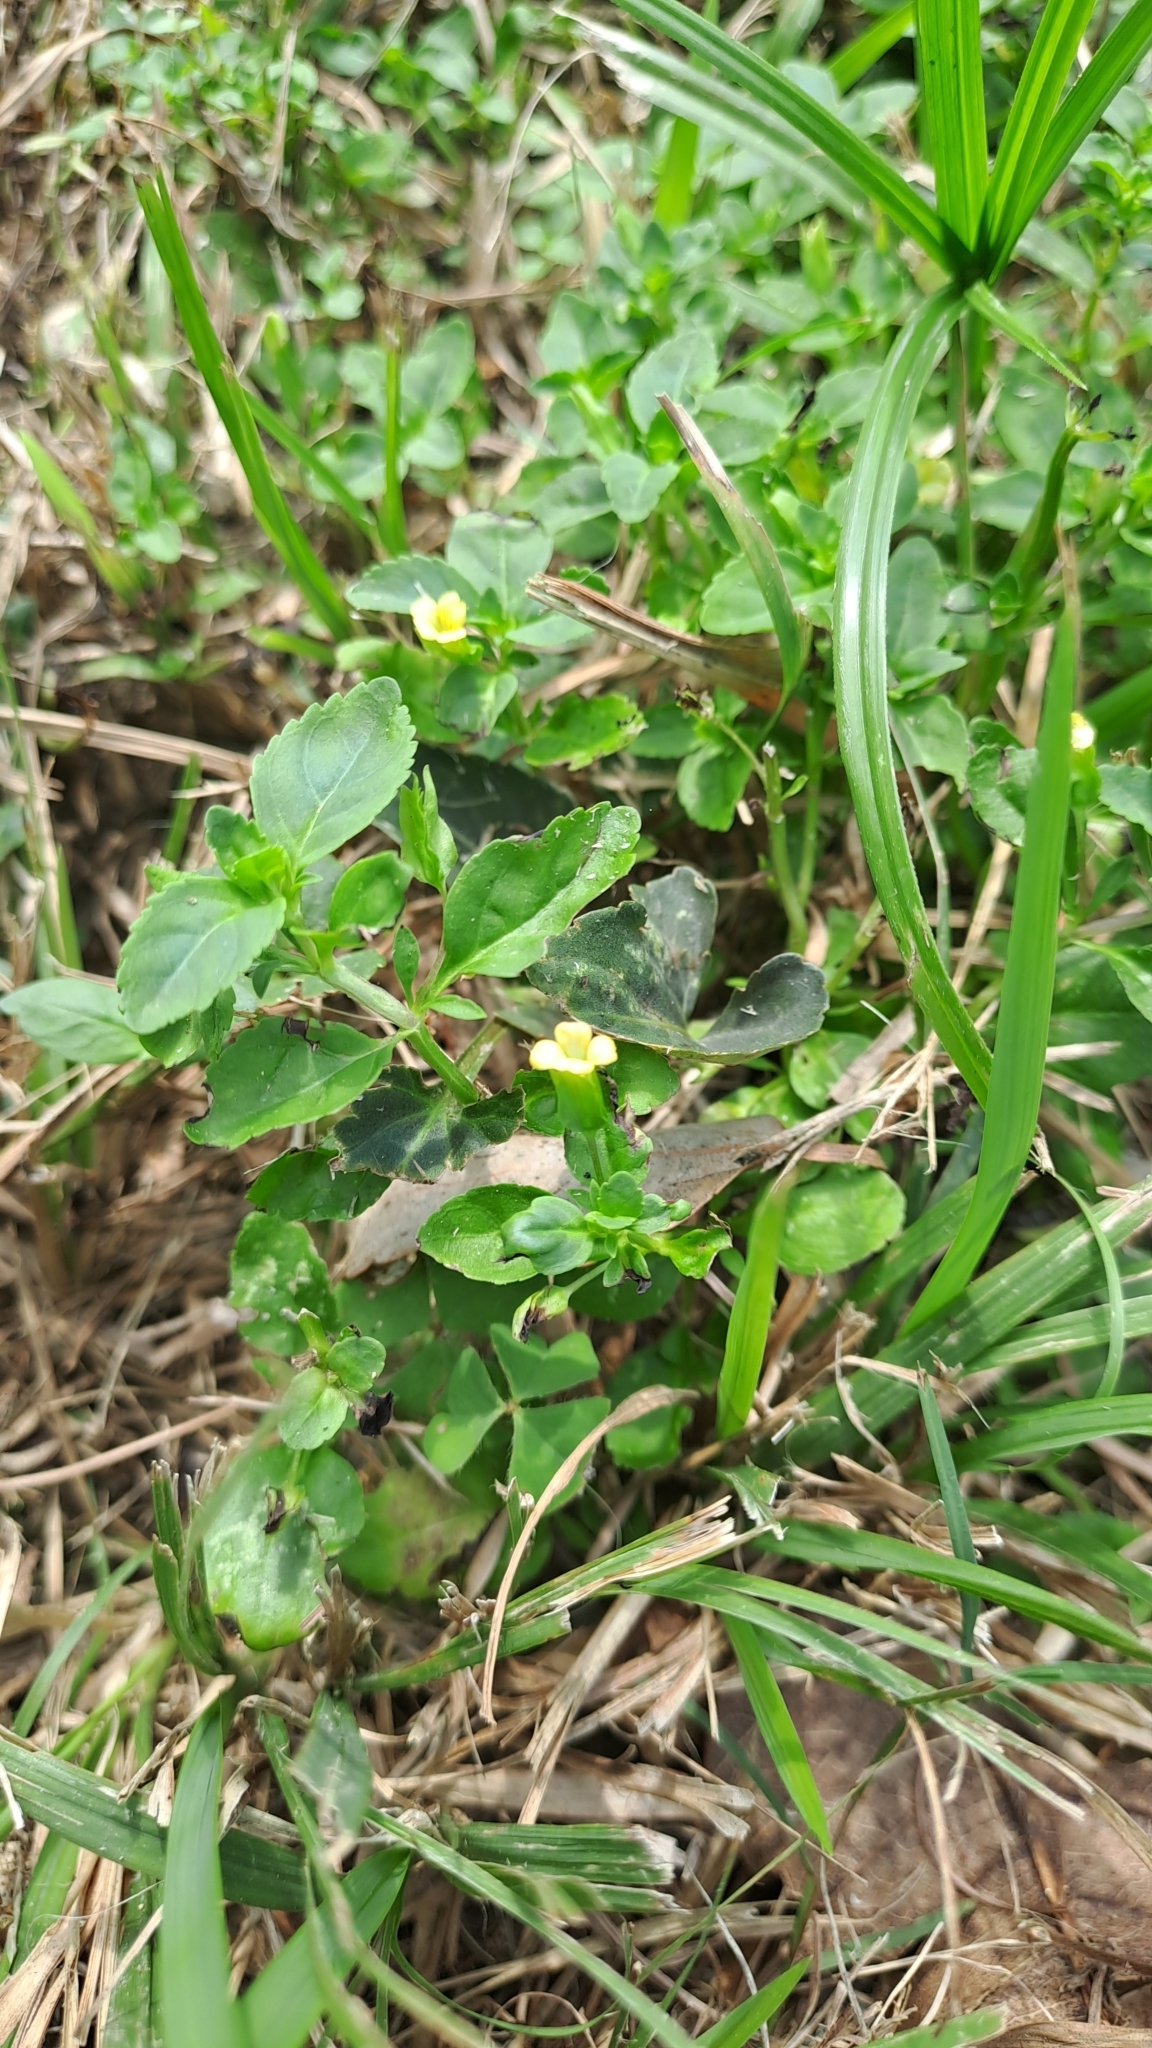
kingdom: Plantae
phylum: Tracheophyta
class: Magnoliopsida
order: Lamiales
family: Plantaginaceae
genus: Mecardonia
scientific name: Mecardonia procumbens
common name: Baby jump-up
